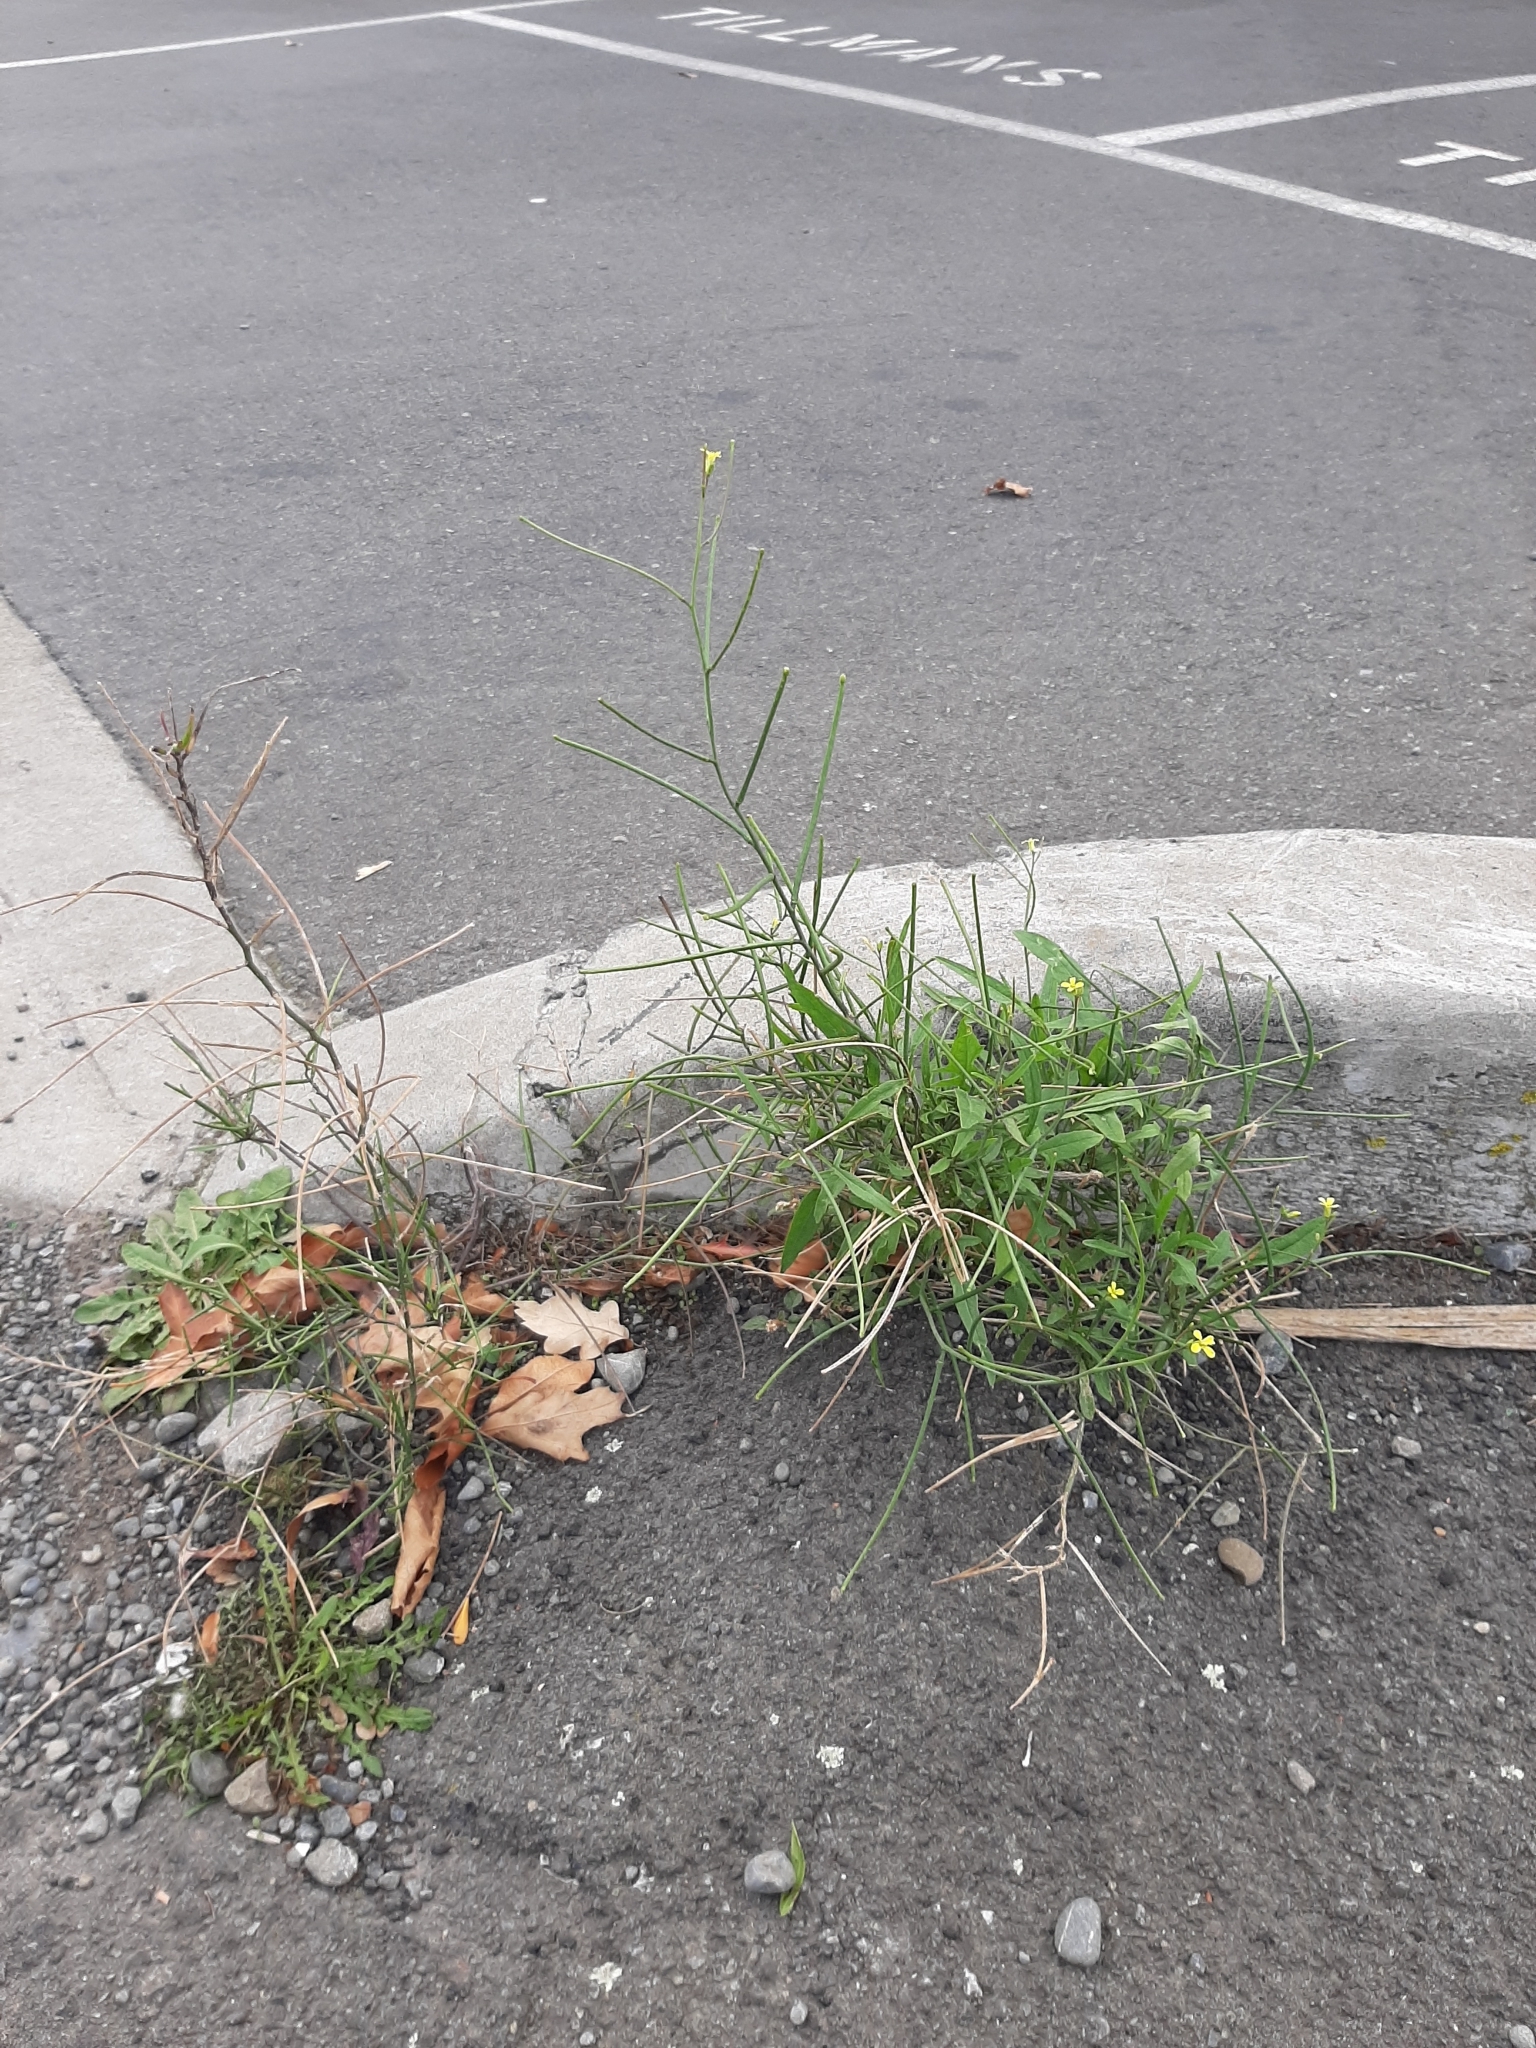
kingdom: Plantae
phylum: Tracheophyta
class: Magnoliopsida
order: Brassicales
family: Brassicaceae
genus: Sisymbrium
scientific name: Sisymbrium orientale
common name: Eastern rocket
